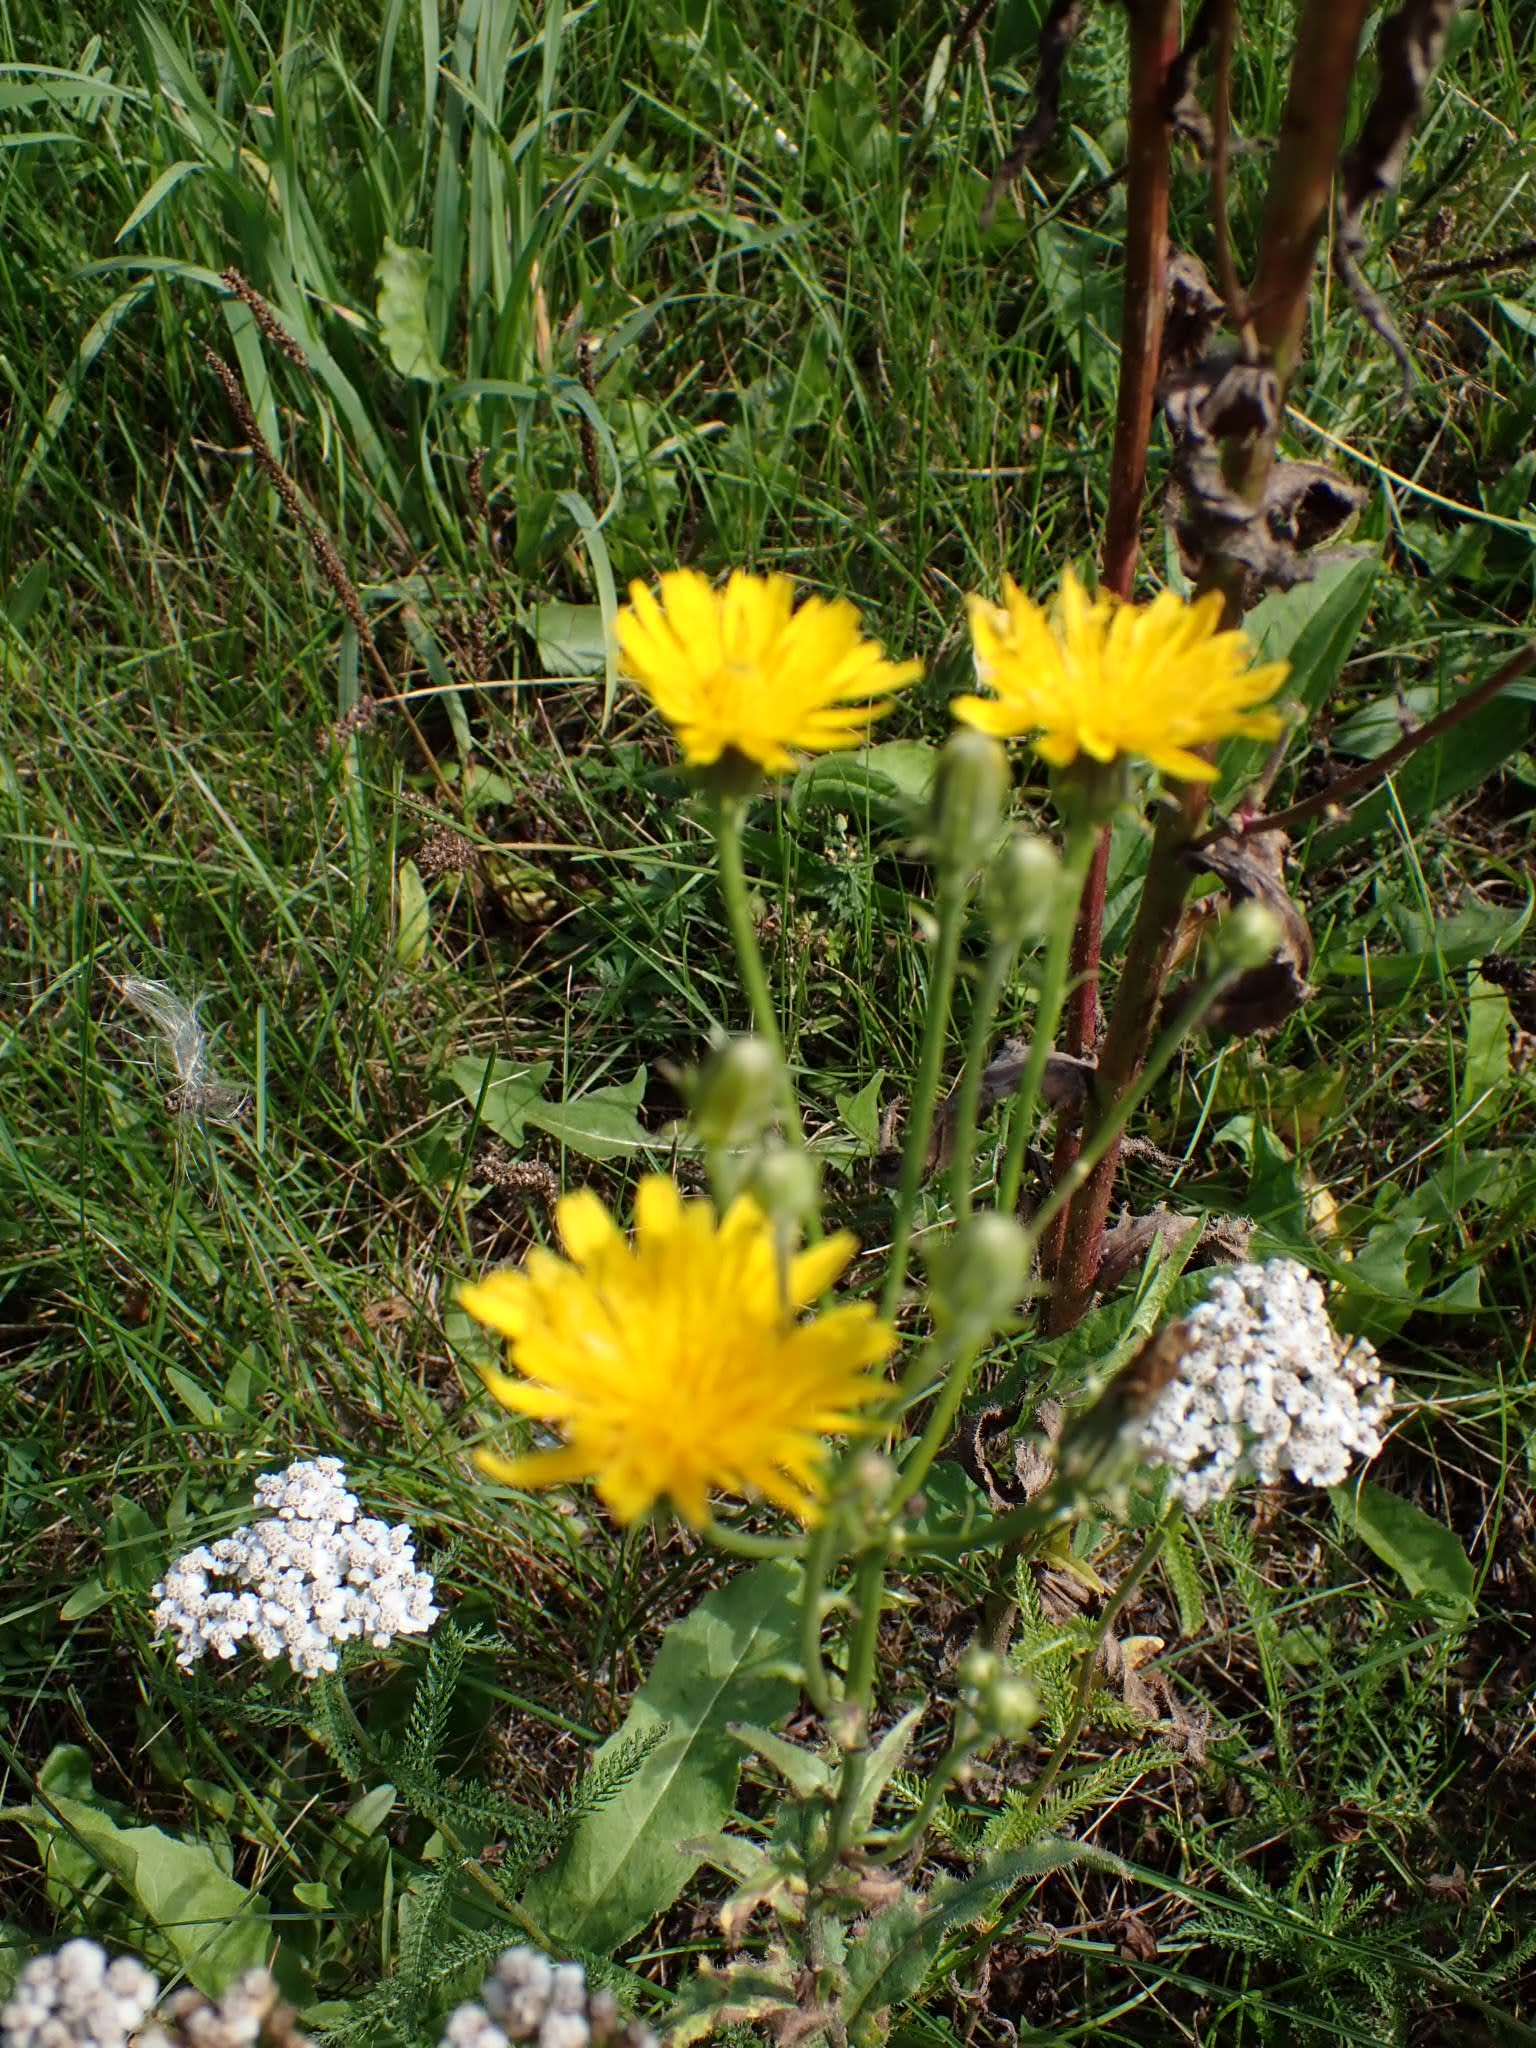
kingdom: Plantae
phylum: Tracheophyta
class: Magnoliopsida
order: Asterales
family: Asteraceae
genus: Picris
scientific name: Picris hieracioides
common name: Hawkweed oxtongue
